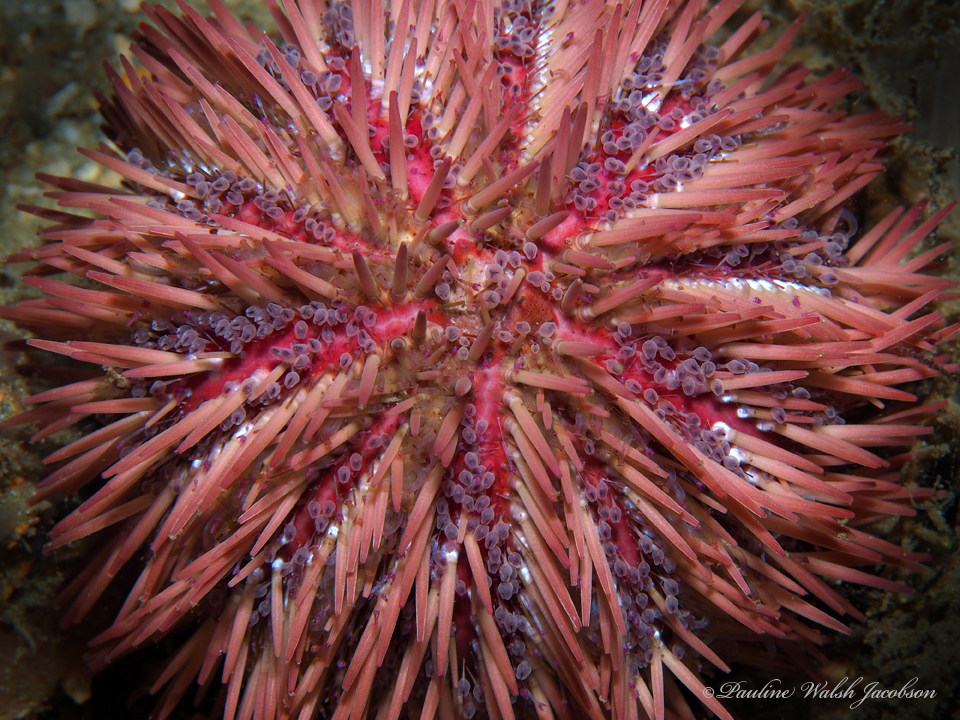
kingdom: Animalia
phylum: Echinodermata
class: Echinoidea
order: Camarodonta
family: Toxopneustidae
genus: Lytechinus
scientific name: Lytechinus variegatus
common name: Variegated urchin
